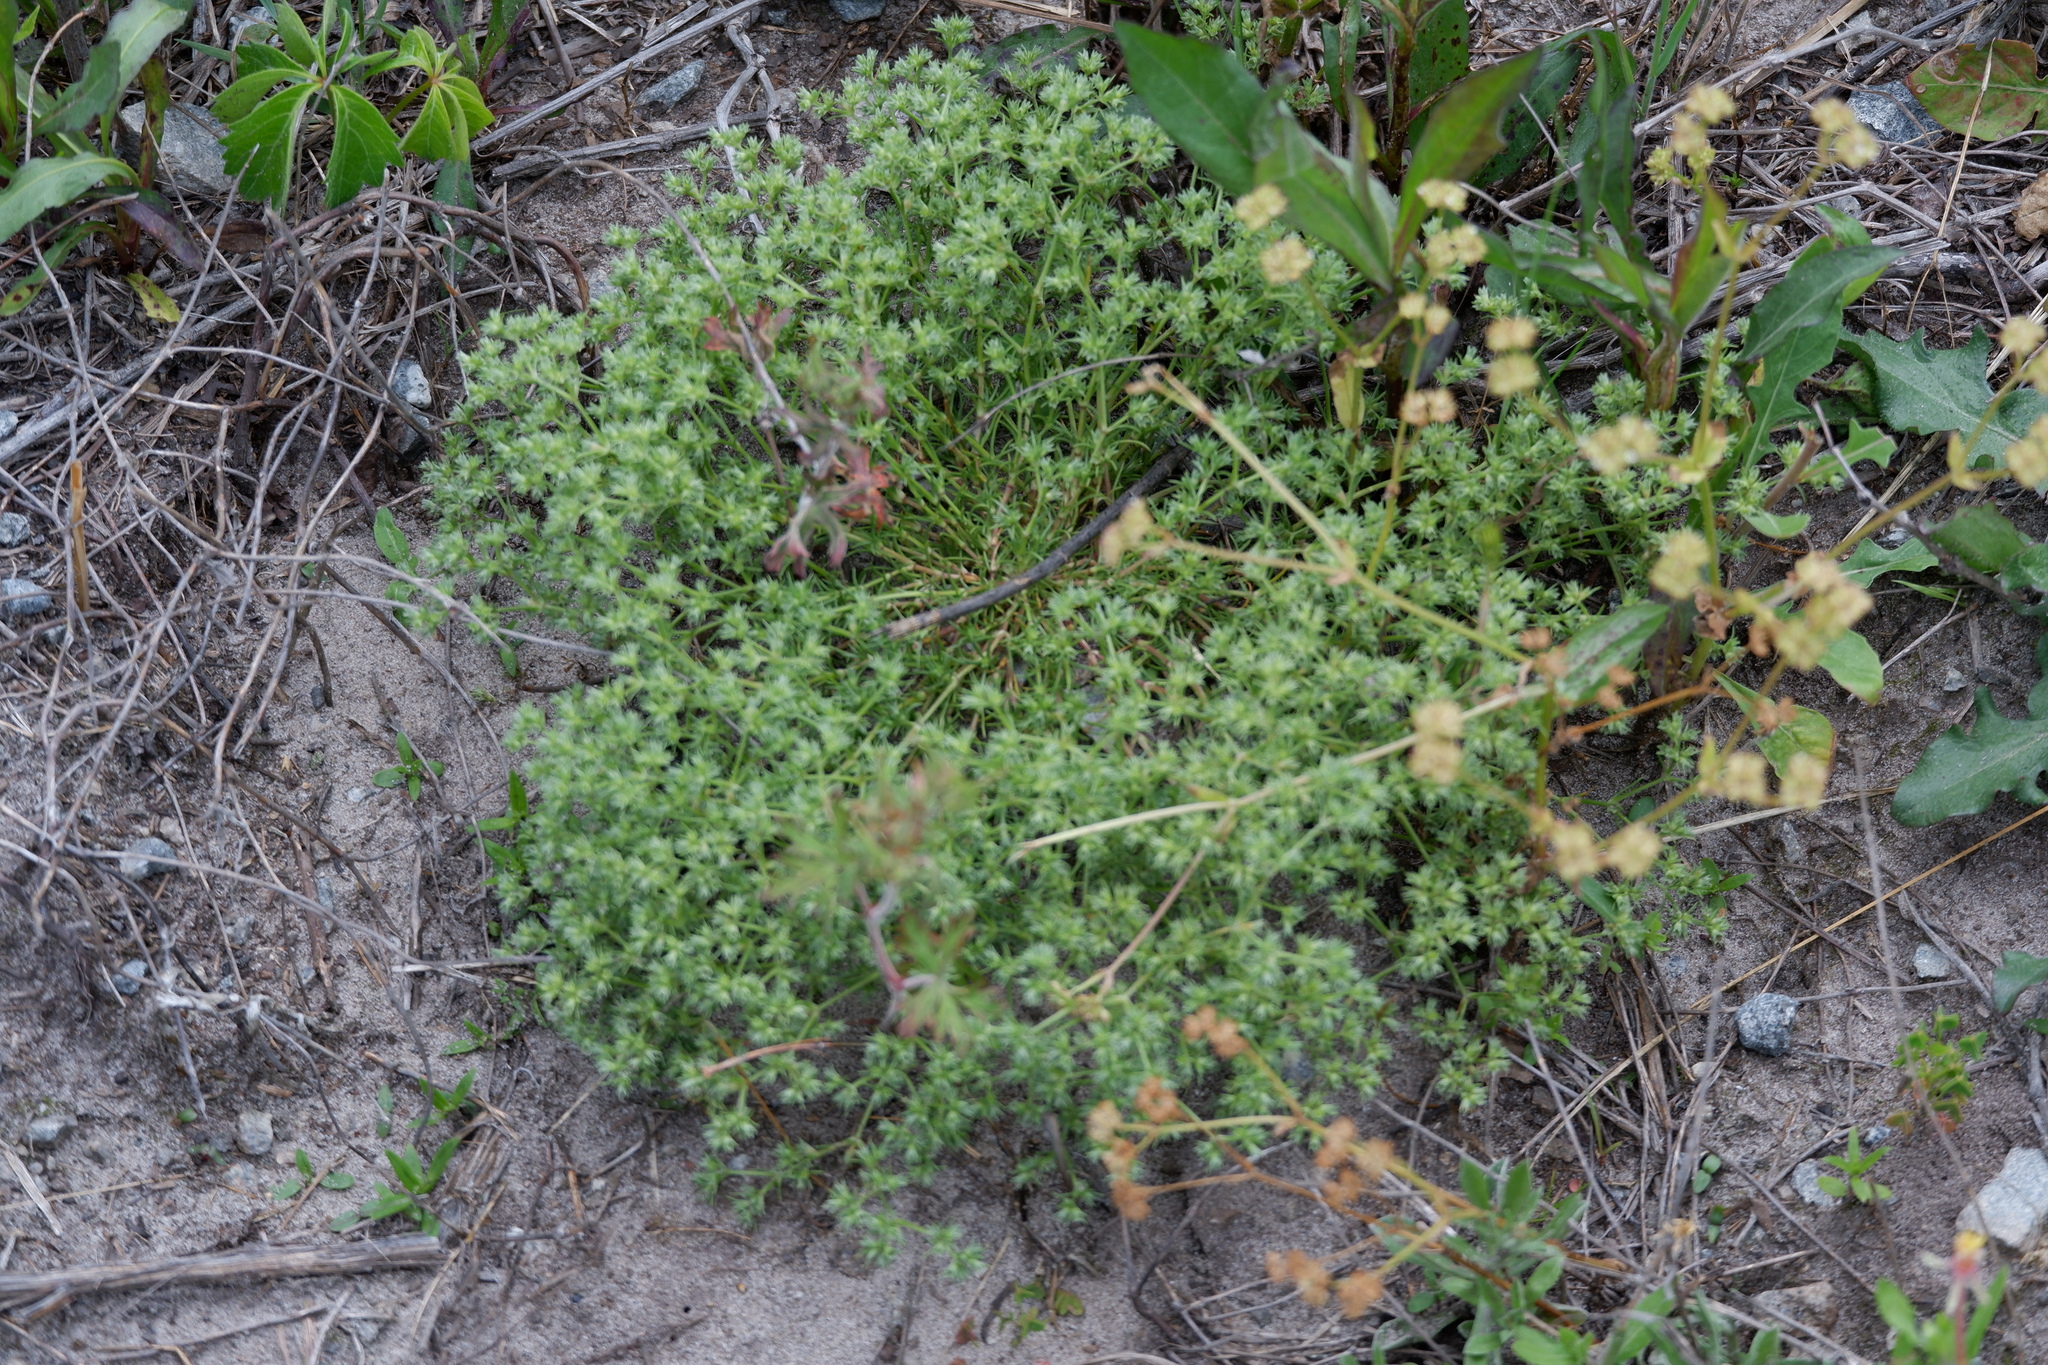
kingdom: Plantae
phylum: Tracheophyta
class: Magnoliopsida
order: Caryophyllales
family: Caryophyllaceae
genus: Scleranthus
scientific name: Scleranthus annuus
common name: Annual knawel
